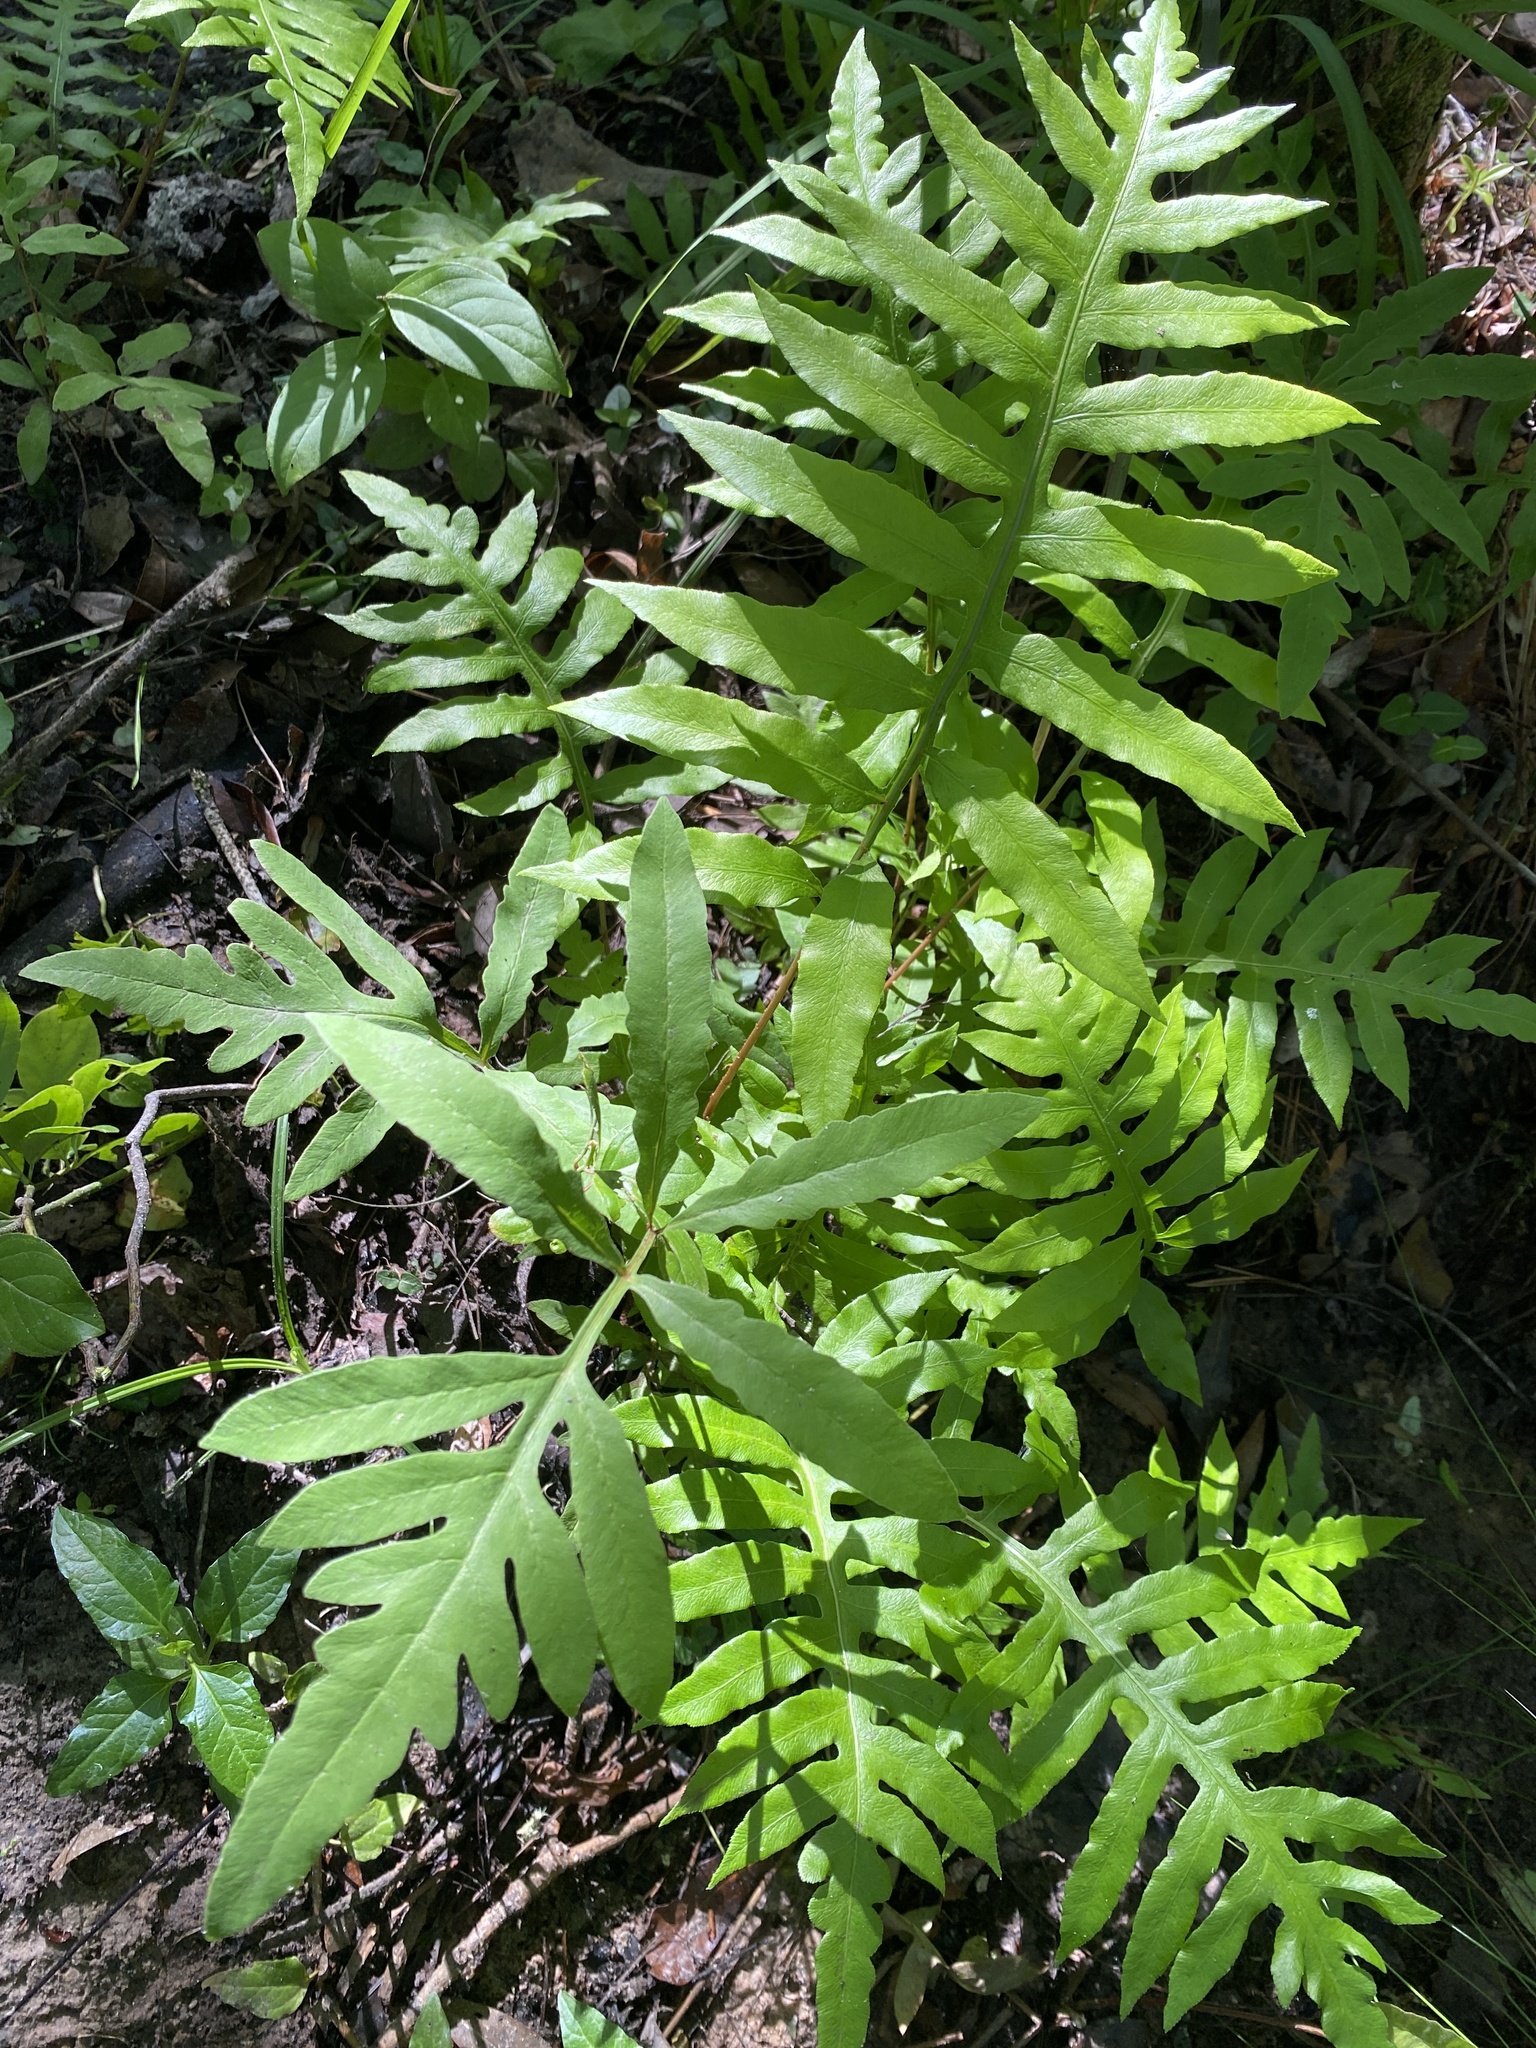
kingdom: Plantae
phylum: Tracheophyta
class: Polypodiopsida
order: Polypodiales
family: Onocleaceae
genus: Onoclea
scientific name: Onoclea sensibilis
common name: Sensitive fern
